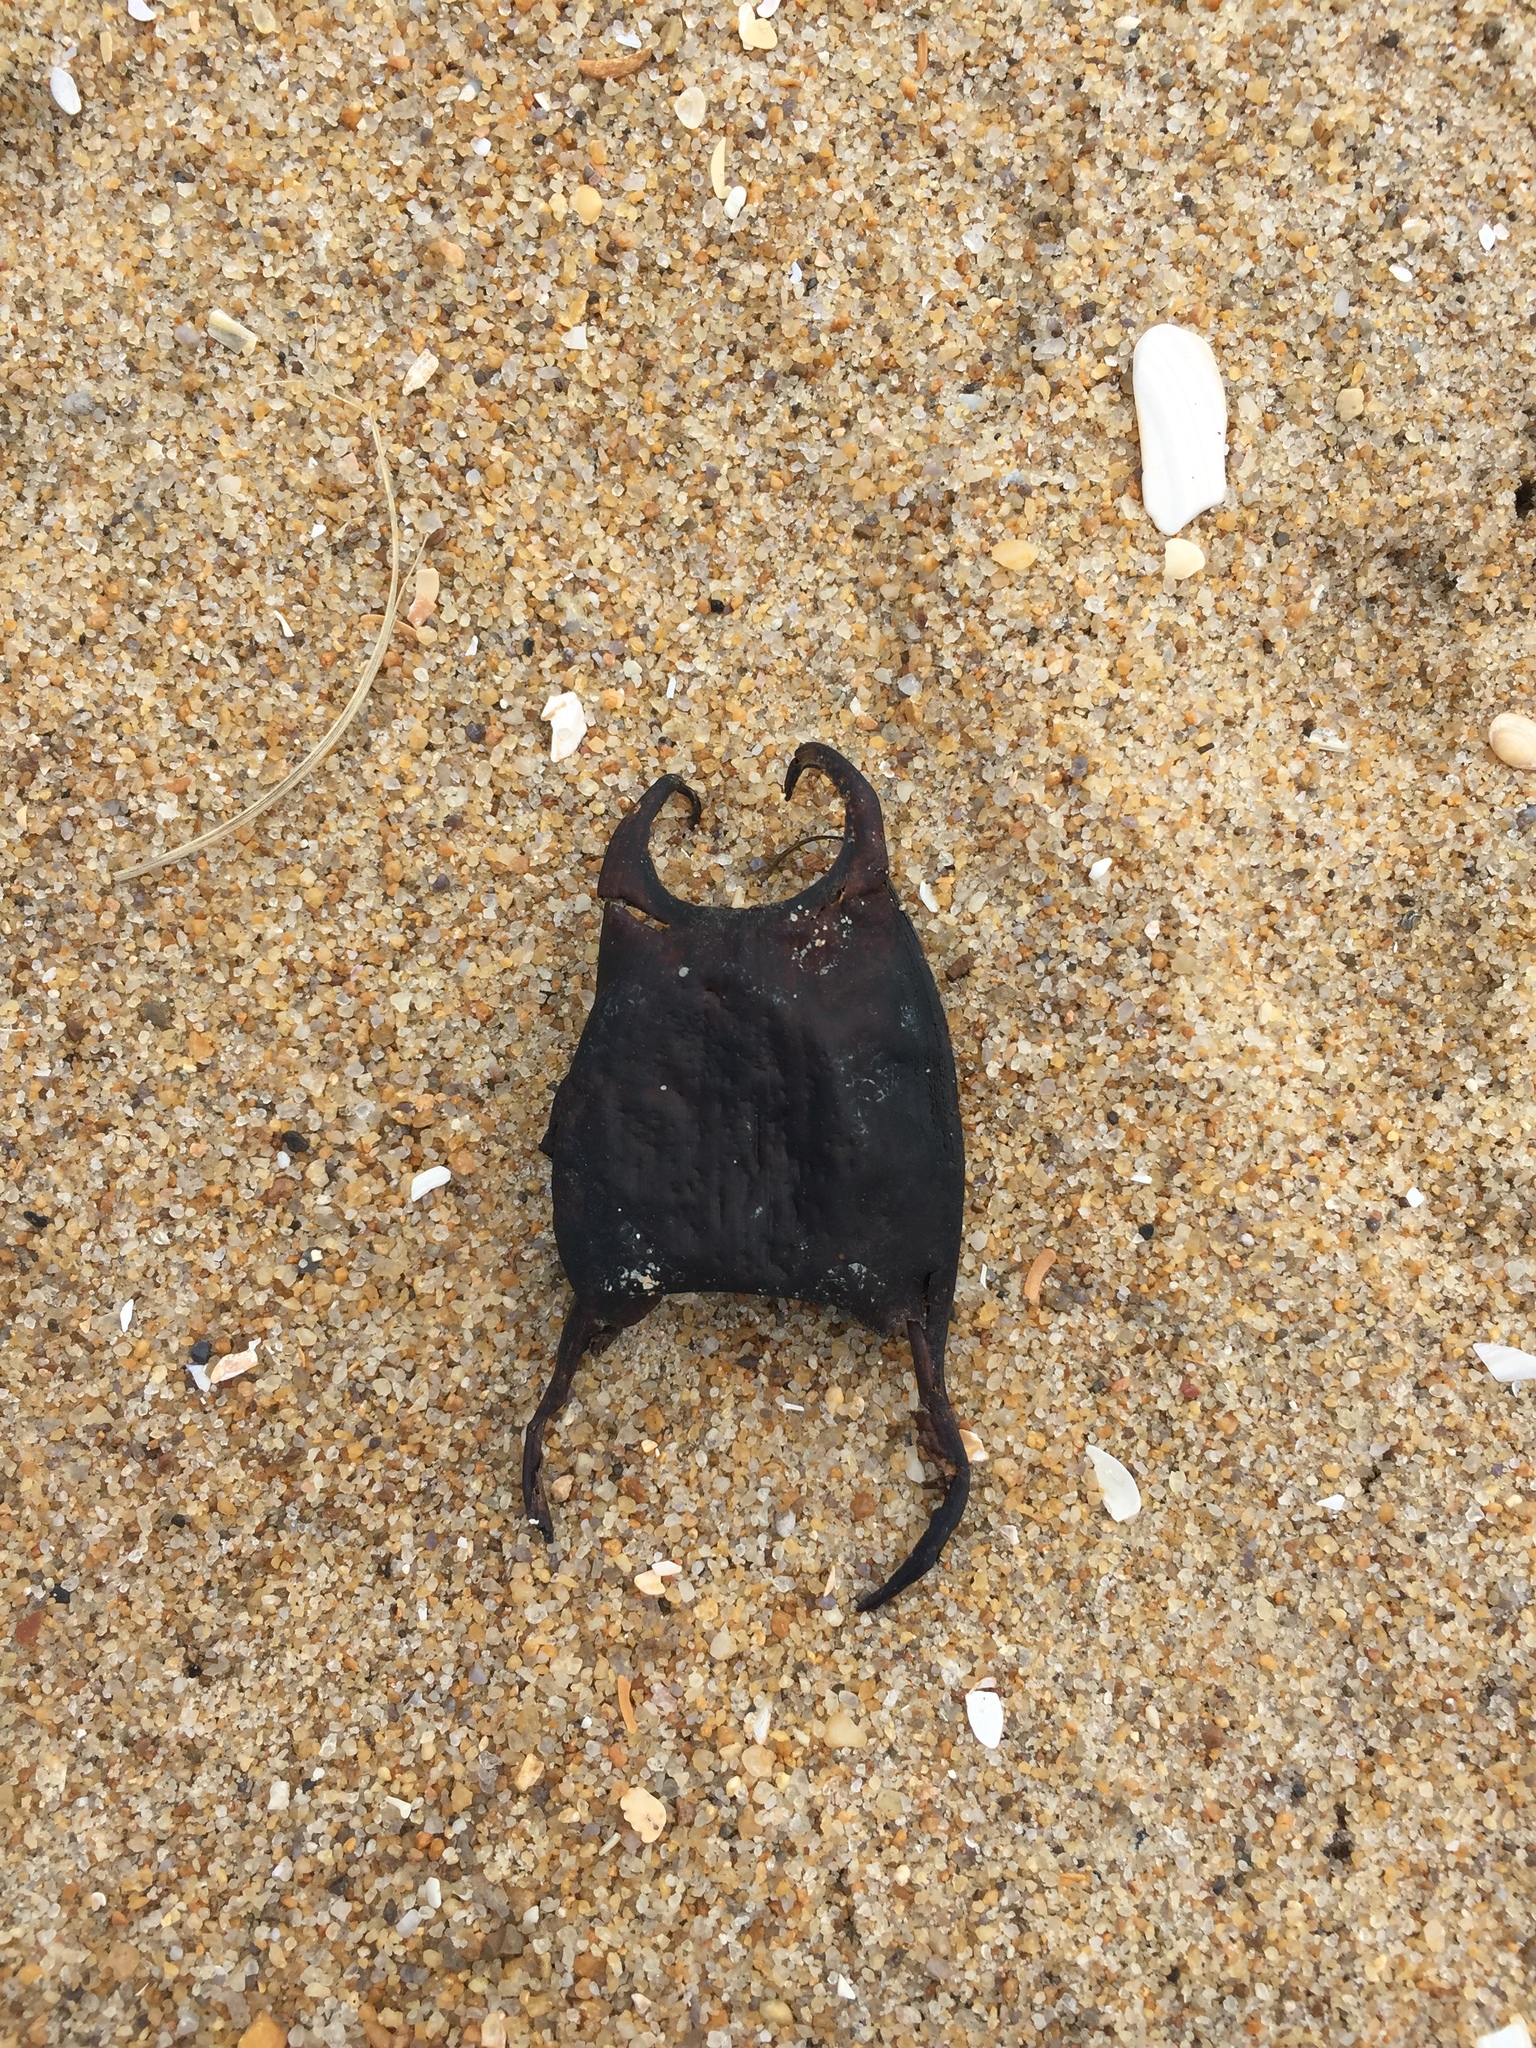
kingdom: Animalia
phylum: Chordata
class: Elasmobranchii
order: Rajiformes
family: Rajidae
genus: Raja
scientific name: Raja eglanteria
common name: Clearnose skate
